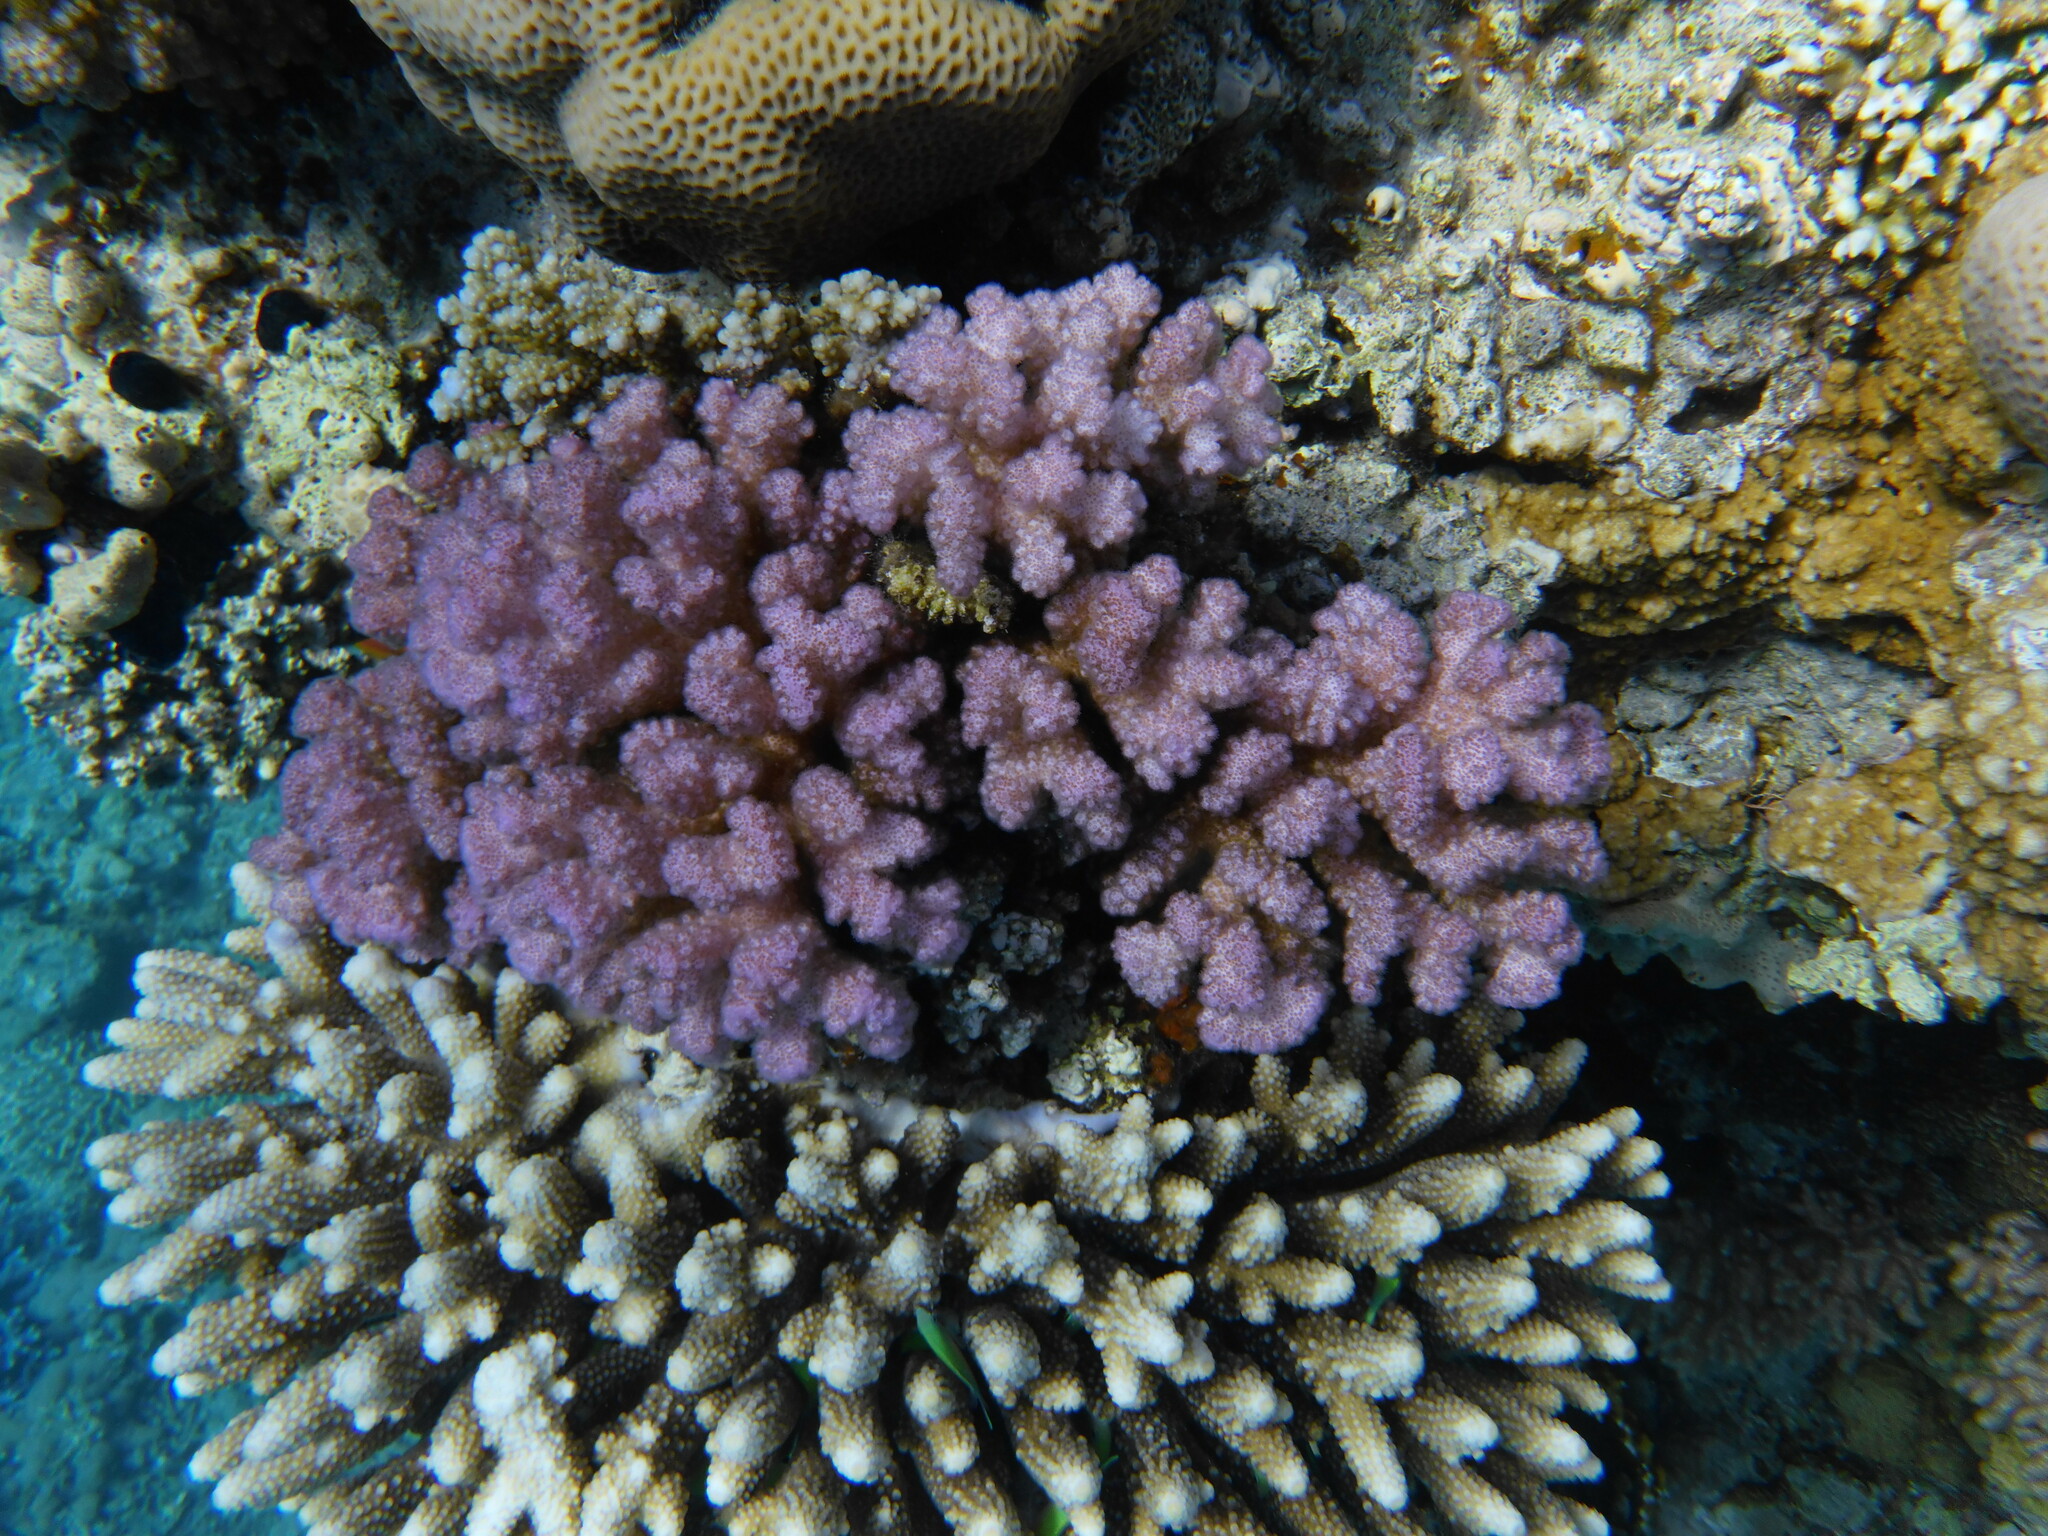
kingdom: Animalia
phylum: Cnidaria
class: Anthozoa
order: Scleractinia
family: Pocilloporidae
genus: Pocillopora
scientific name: Pocillopora verrucosa
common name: Cauliflower coral
